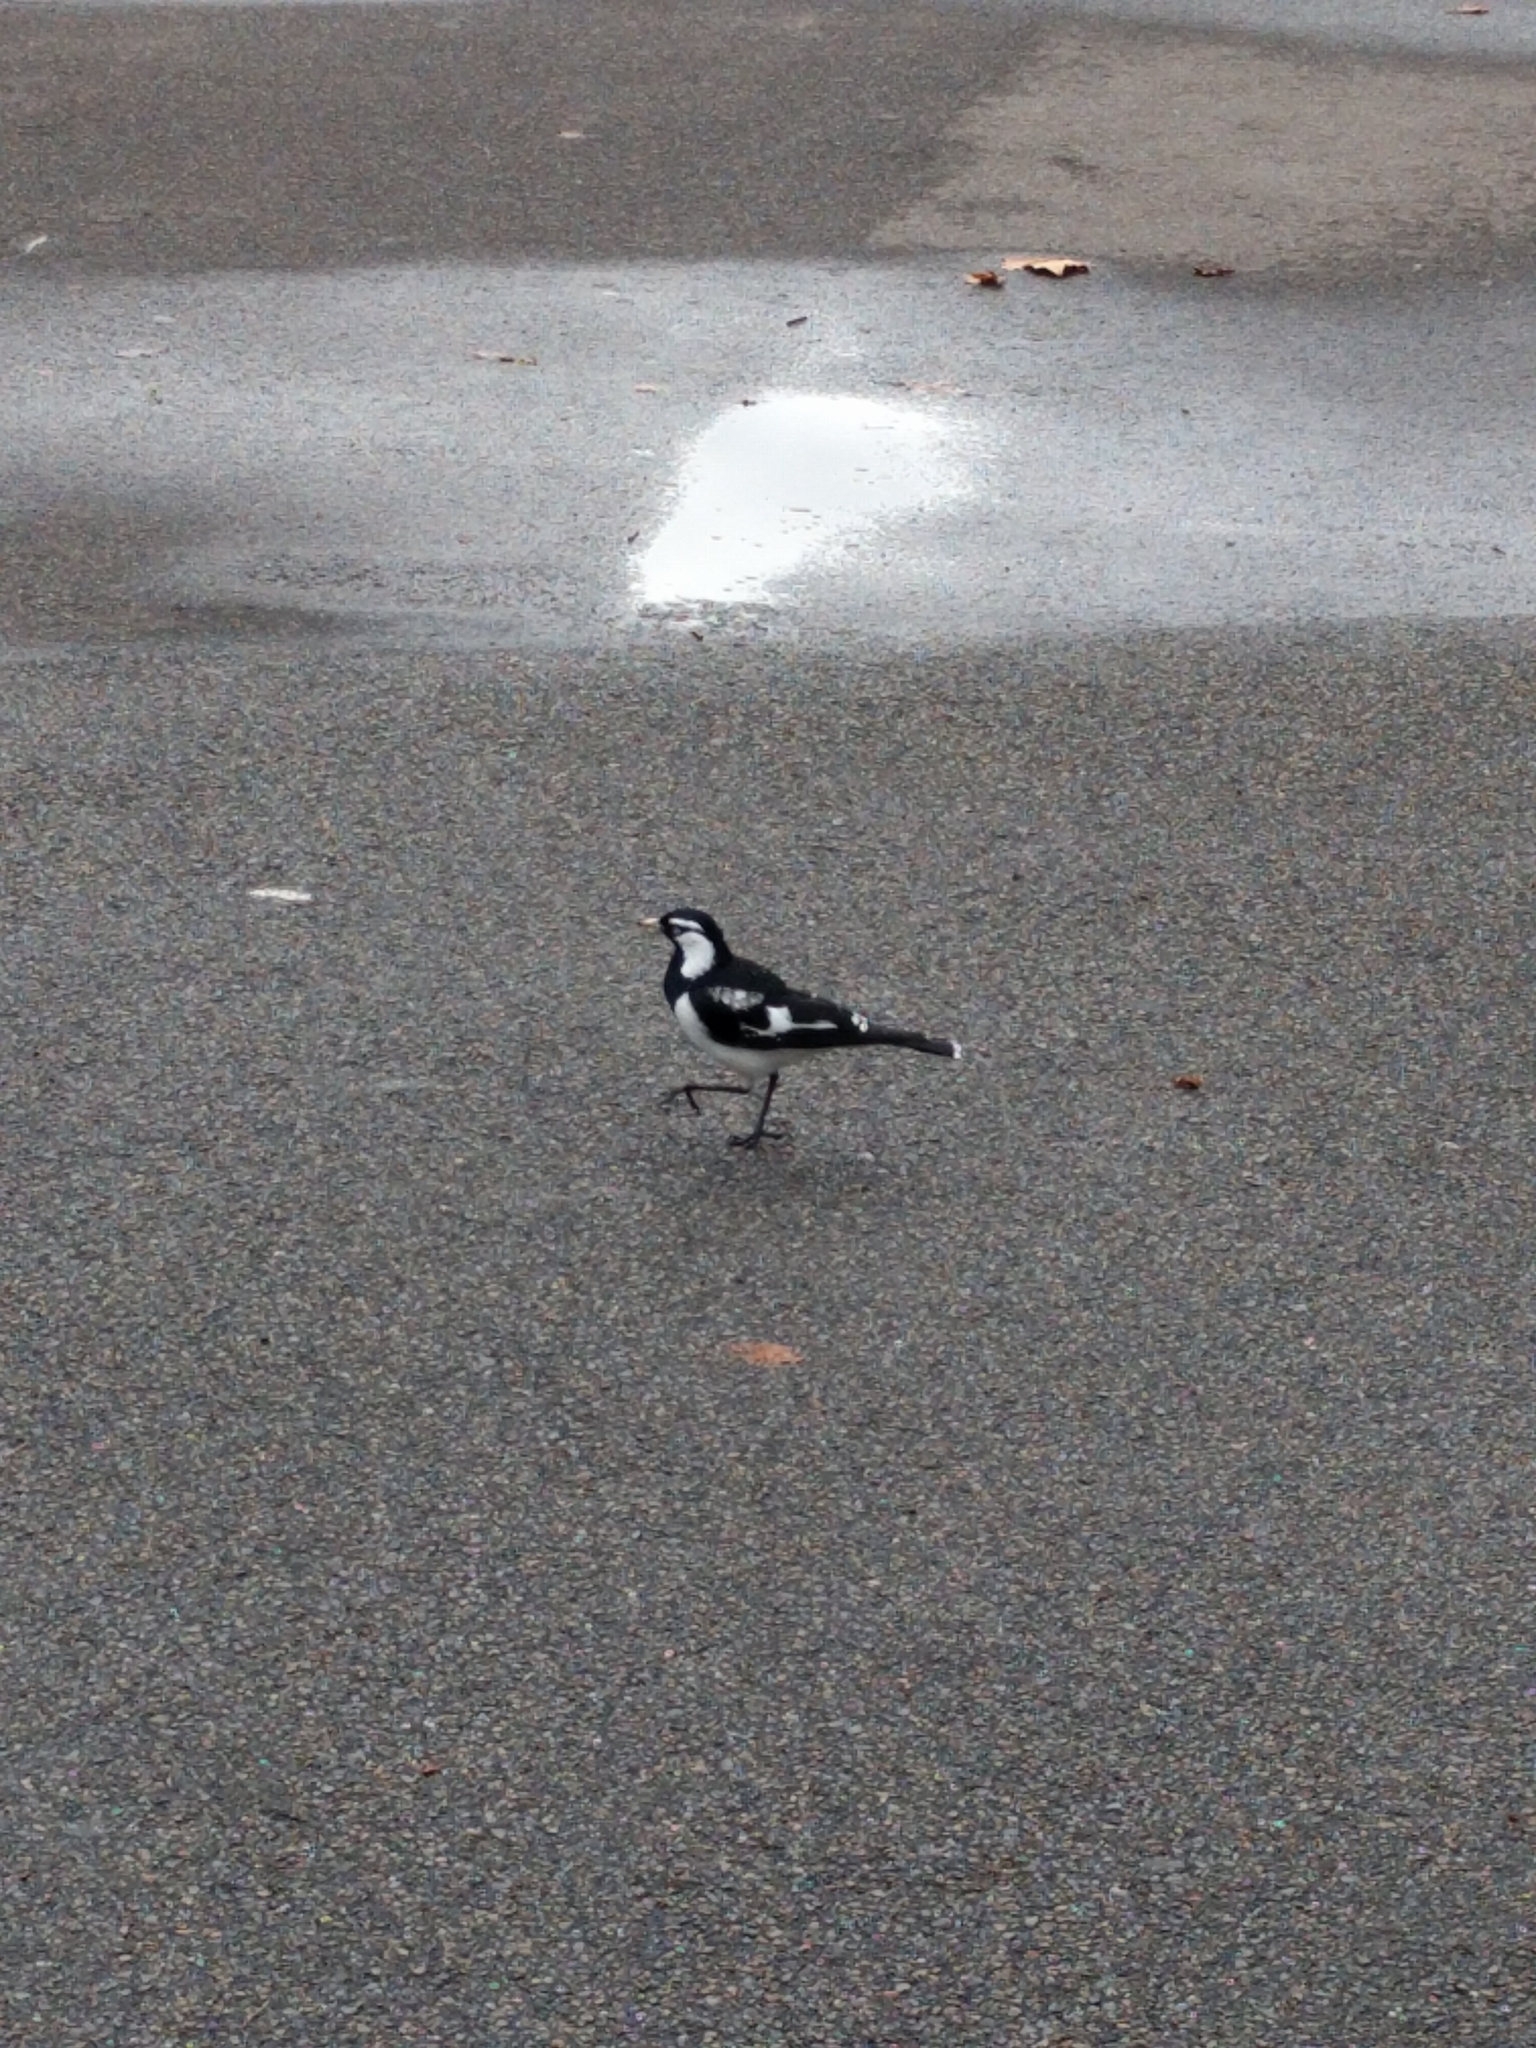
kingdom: Animalia
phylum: Chordata
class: Aves
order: Passeriformes
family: Monarchidae
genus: Grallina
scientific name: Grallina cyanoleuca
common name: Magpie-lark
